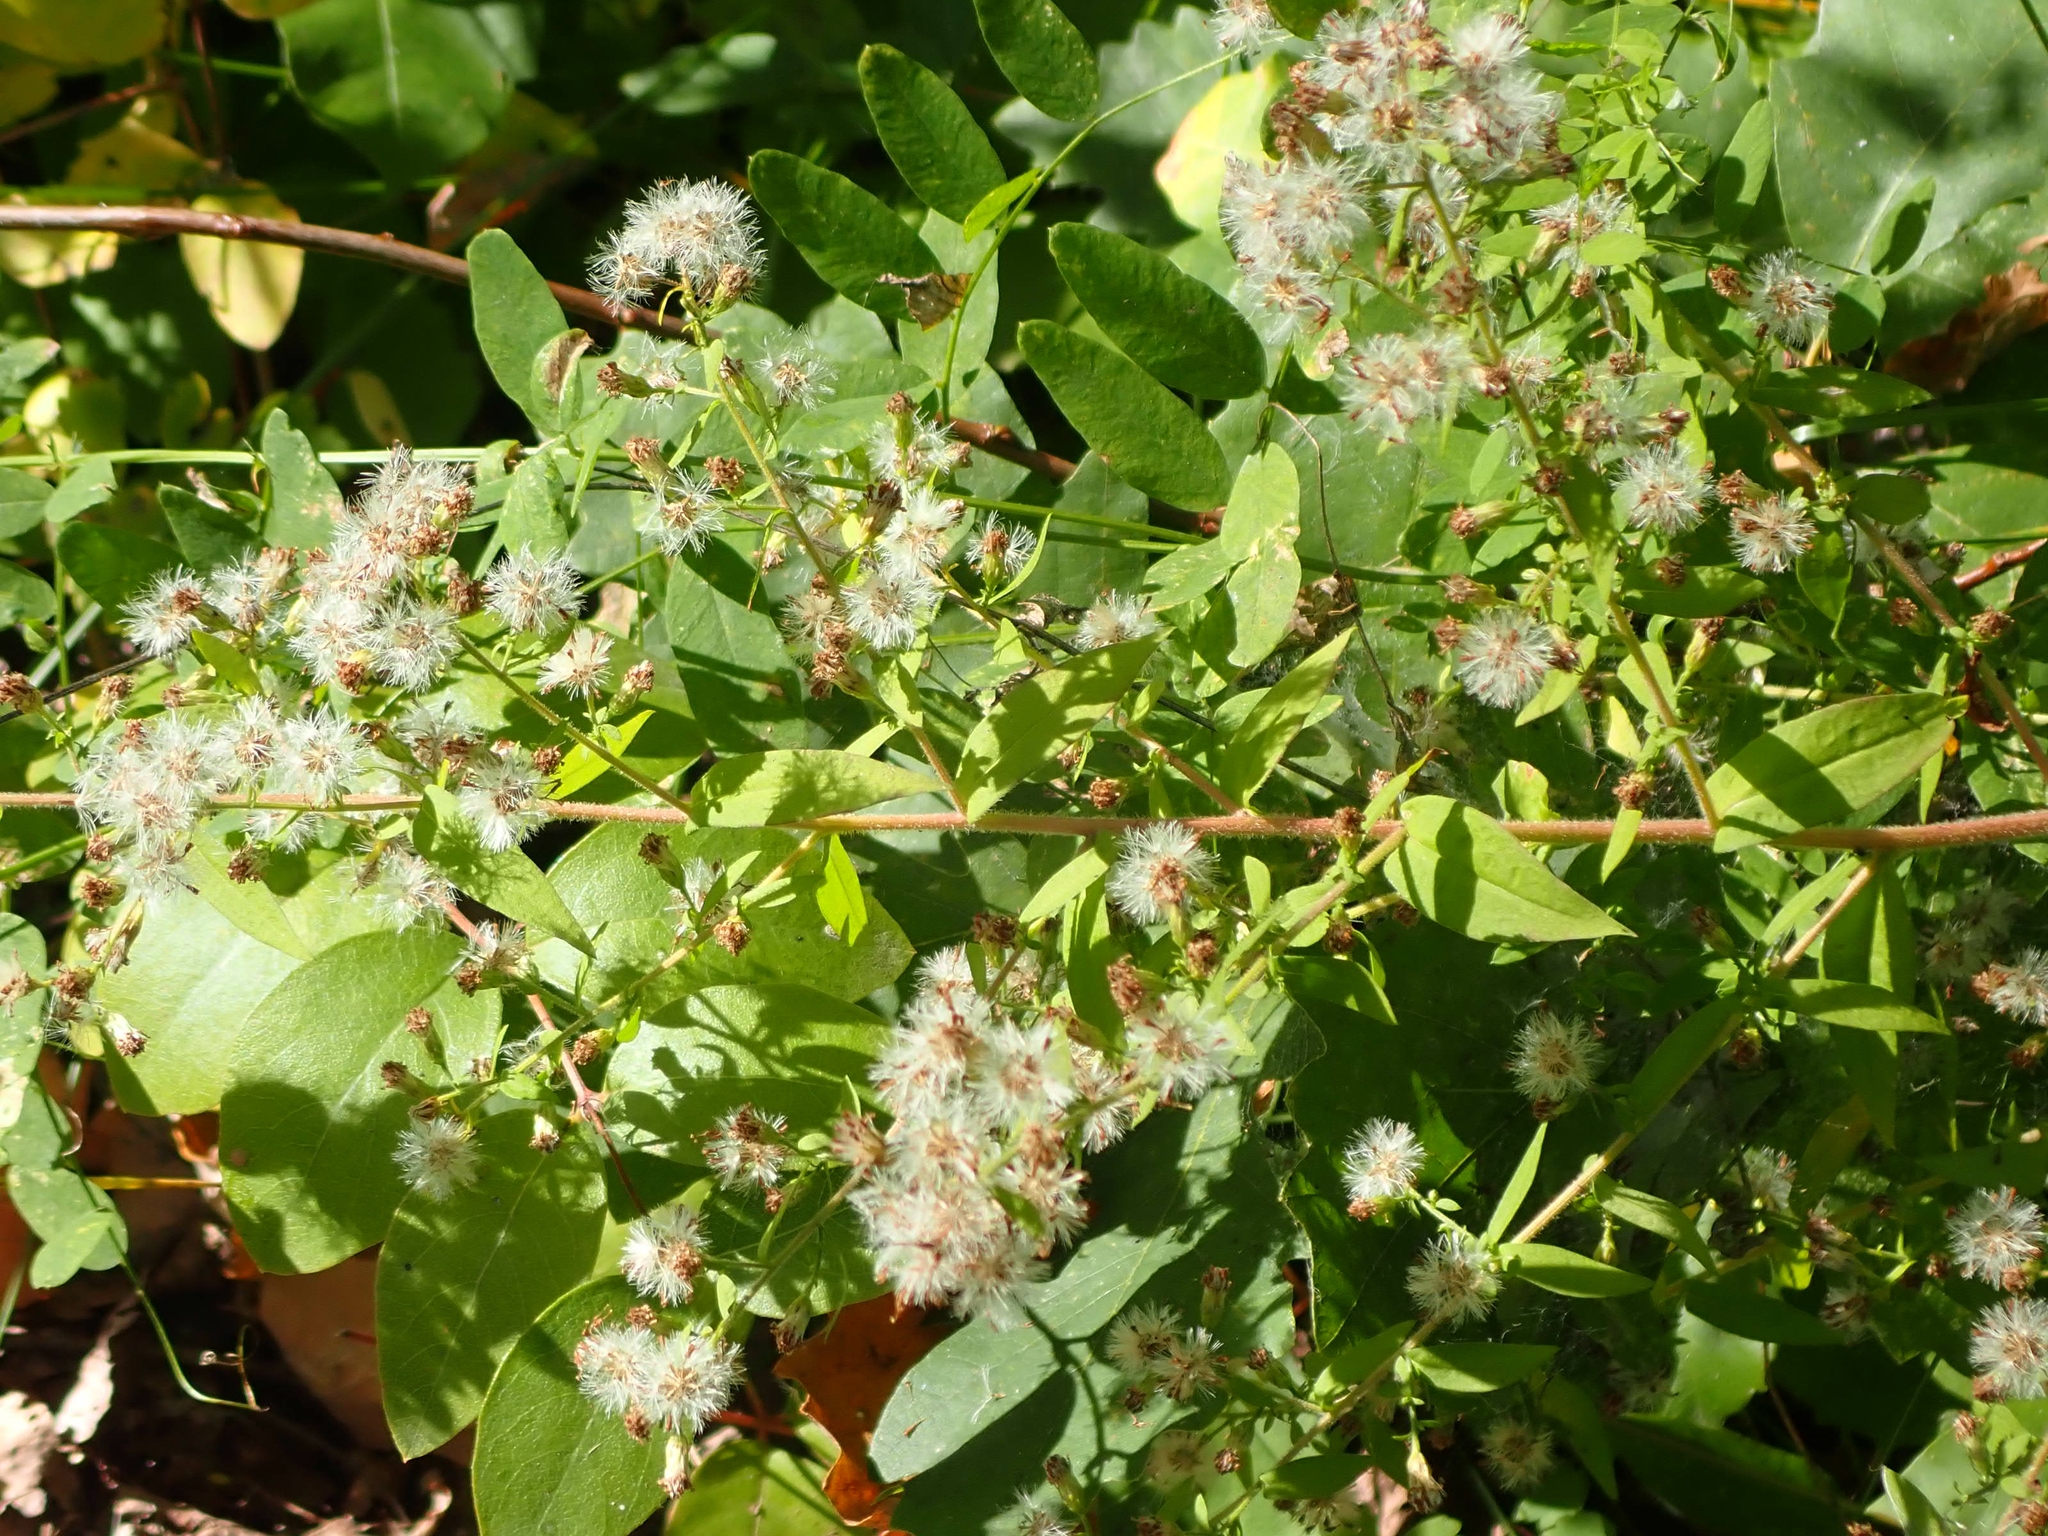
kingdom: Plantae
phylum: Tracheophyta
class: Magnoliopsida
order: Asterales
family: Asteraceae
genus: Symphyotrichum
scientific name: Symphyotrichum lateriflorum
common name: Calico aster
